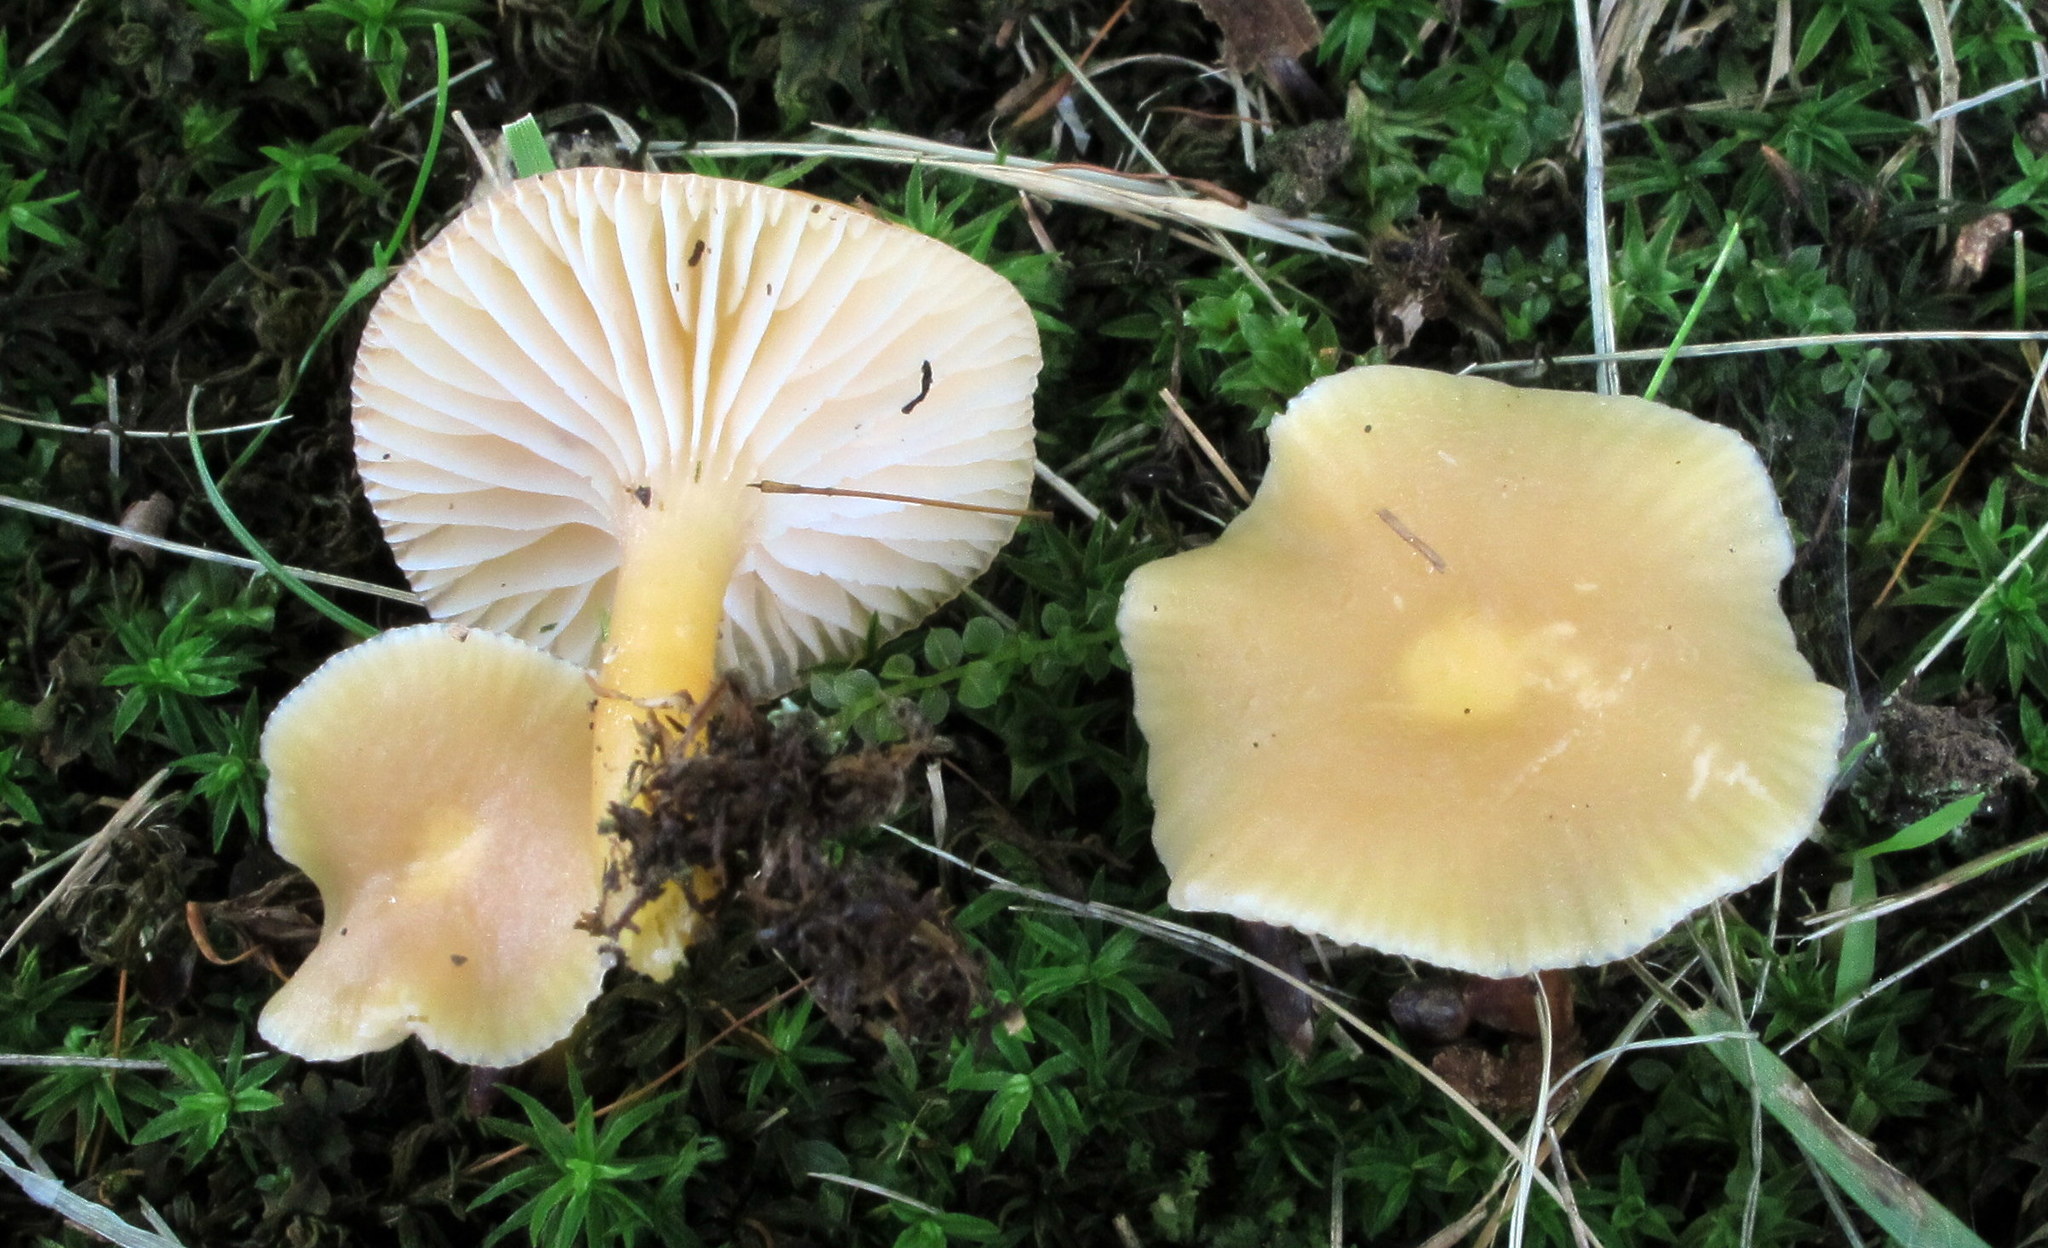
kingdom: Fungi
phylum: Basidiomycota
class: Agaricomycetes
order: Agaricales
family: Hygrophoraceae
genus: Gliophorus
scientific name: Gliophorus laetus
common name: Heath waxcap
